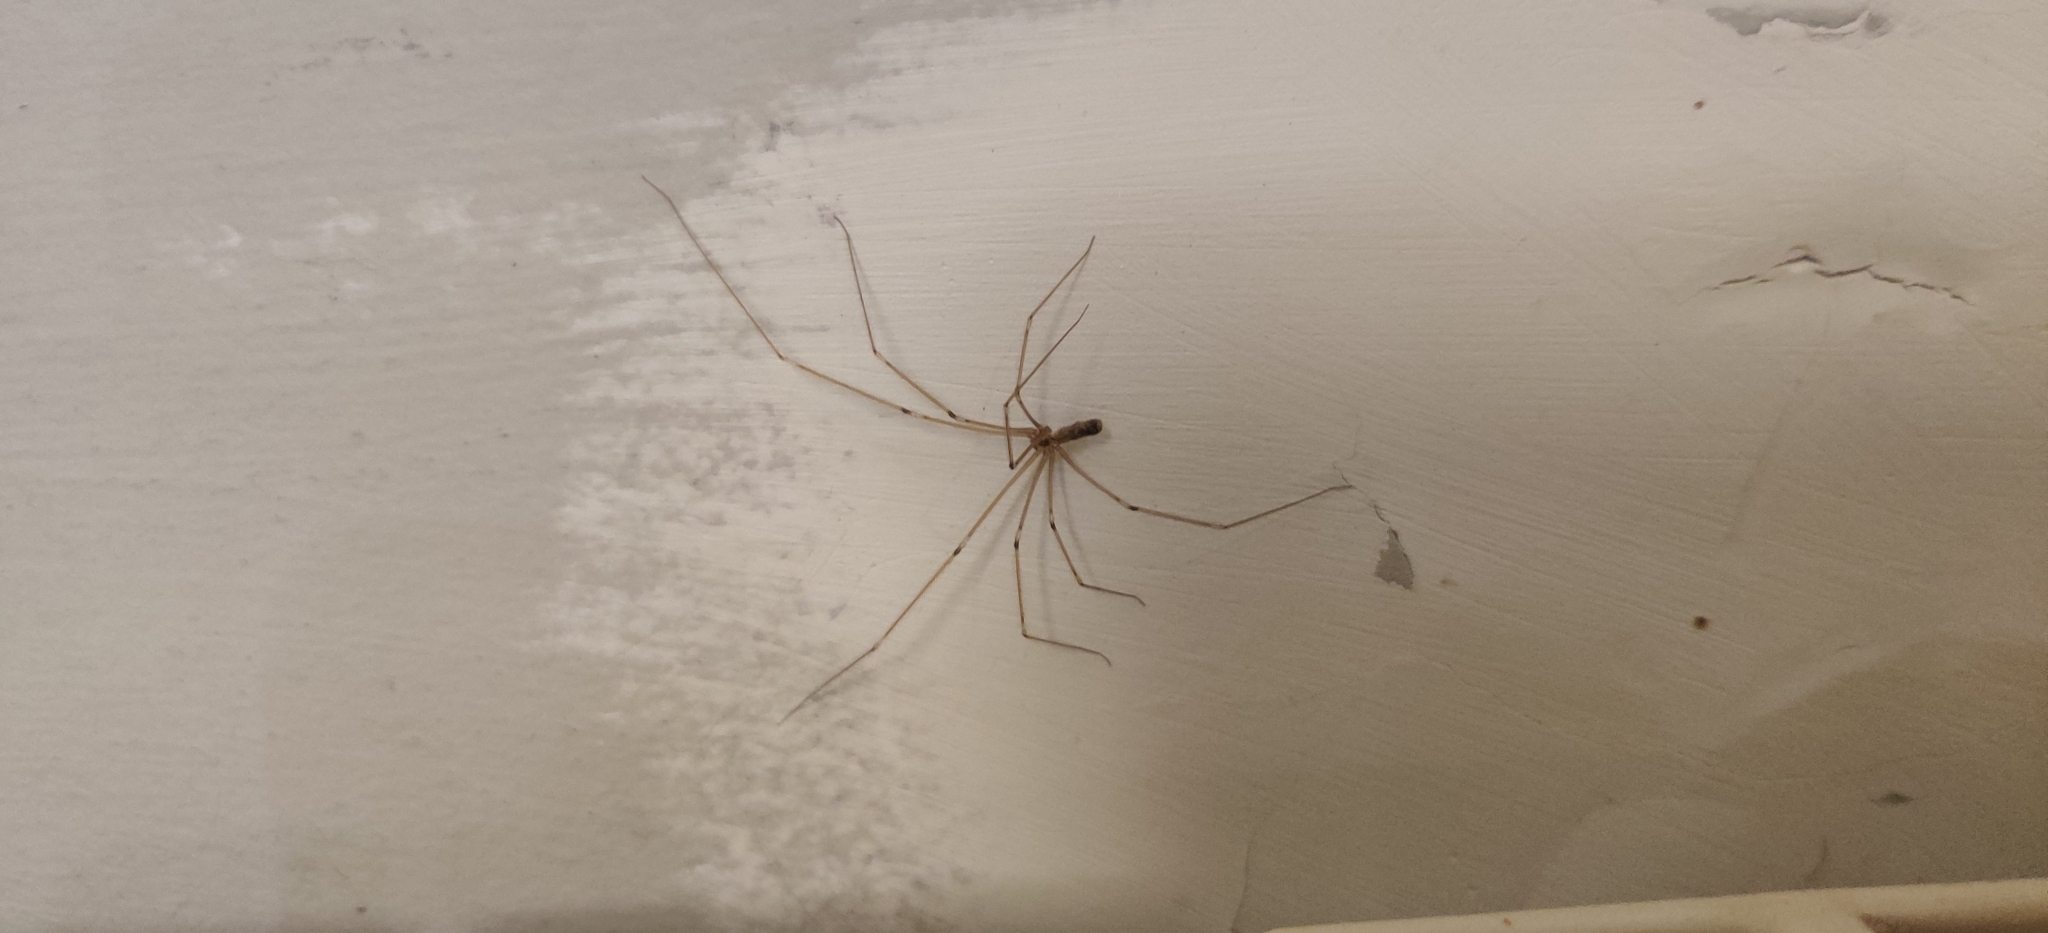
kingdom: Animalia
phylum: Arthropoda
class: Arachnida
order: Araneae
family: Pholcidae
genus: Pholcus
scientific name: Pholcus phalangioides
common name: Longbodied cellar spider
